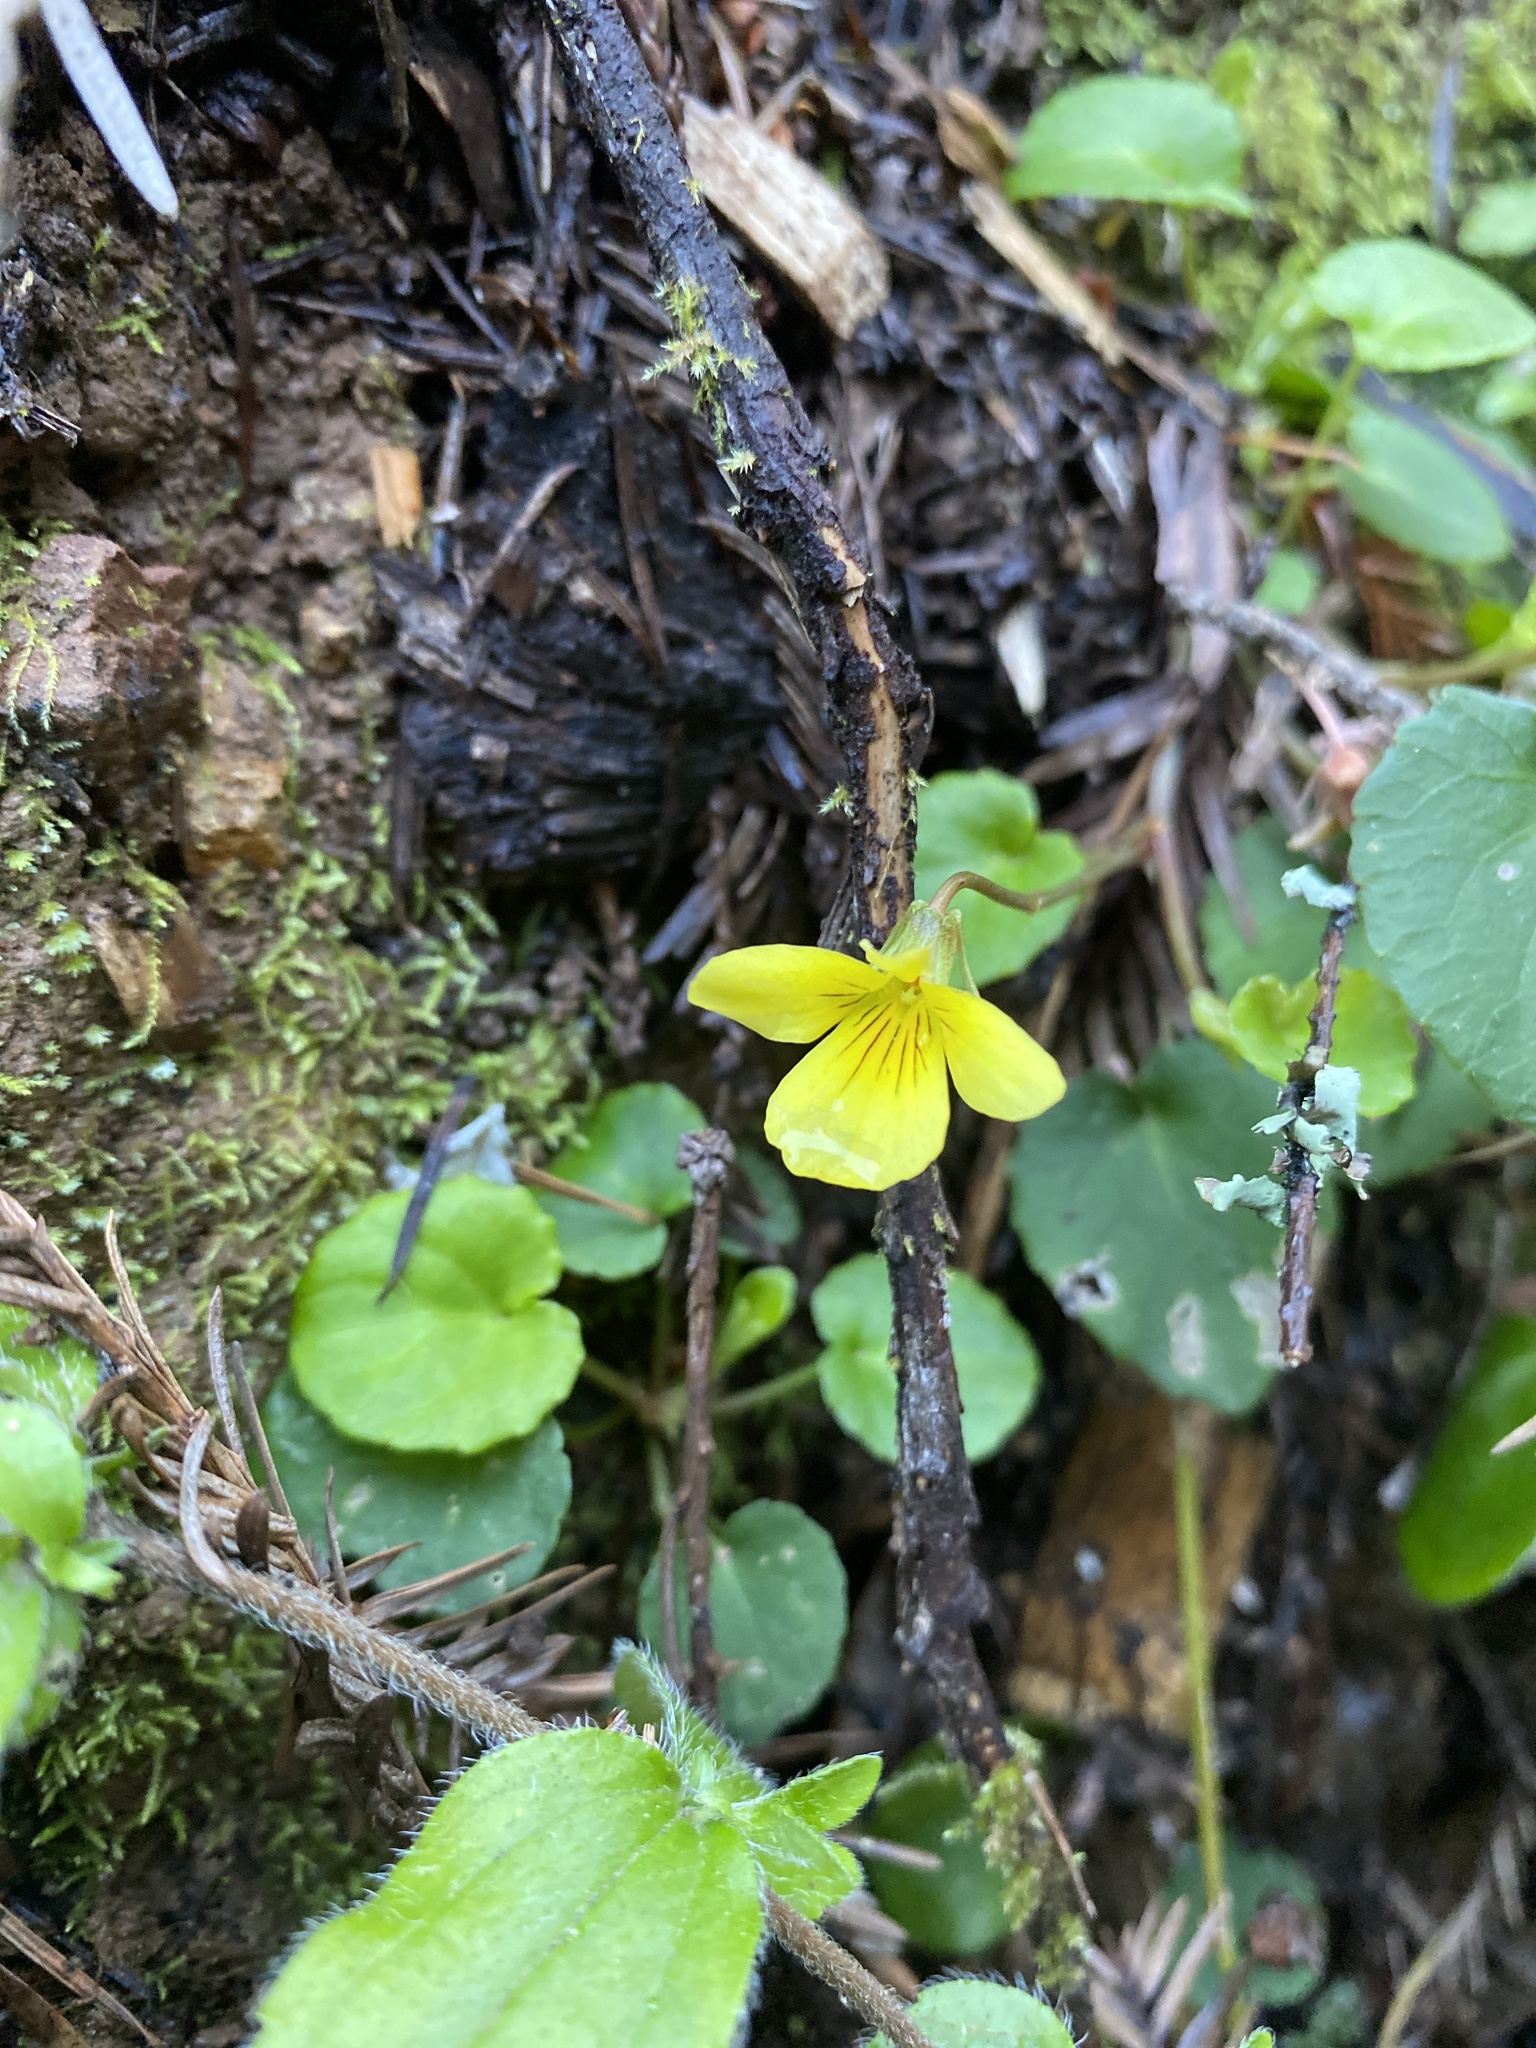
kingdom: Plantae
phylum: Tracheophyta
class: Magnoliopsida
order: Malpighiales
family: Violaceae
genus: Viola
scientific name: Viola sempervirens
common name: Evergreen violet
